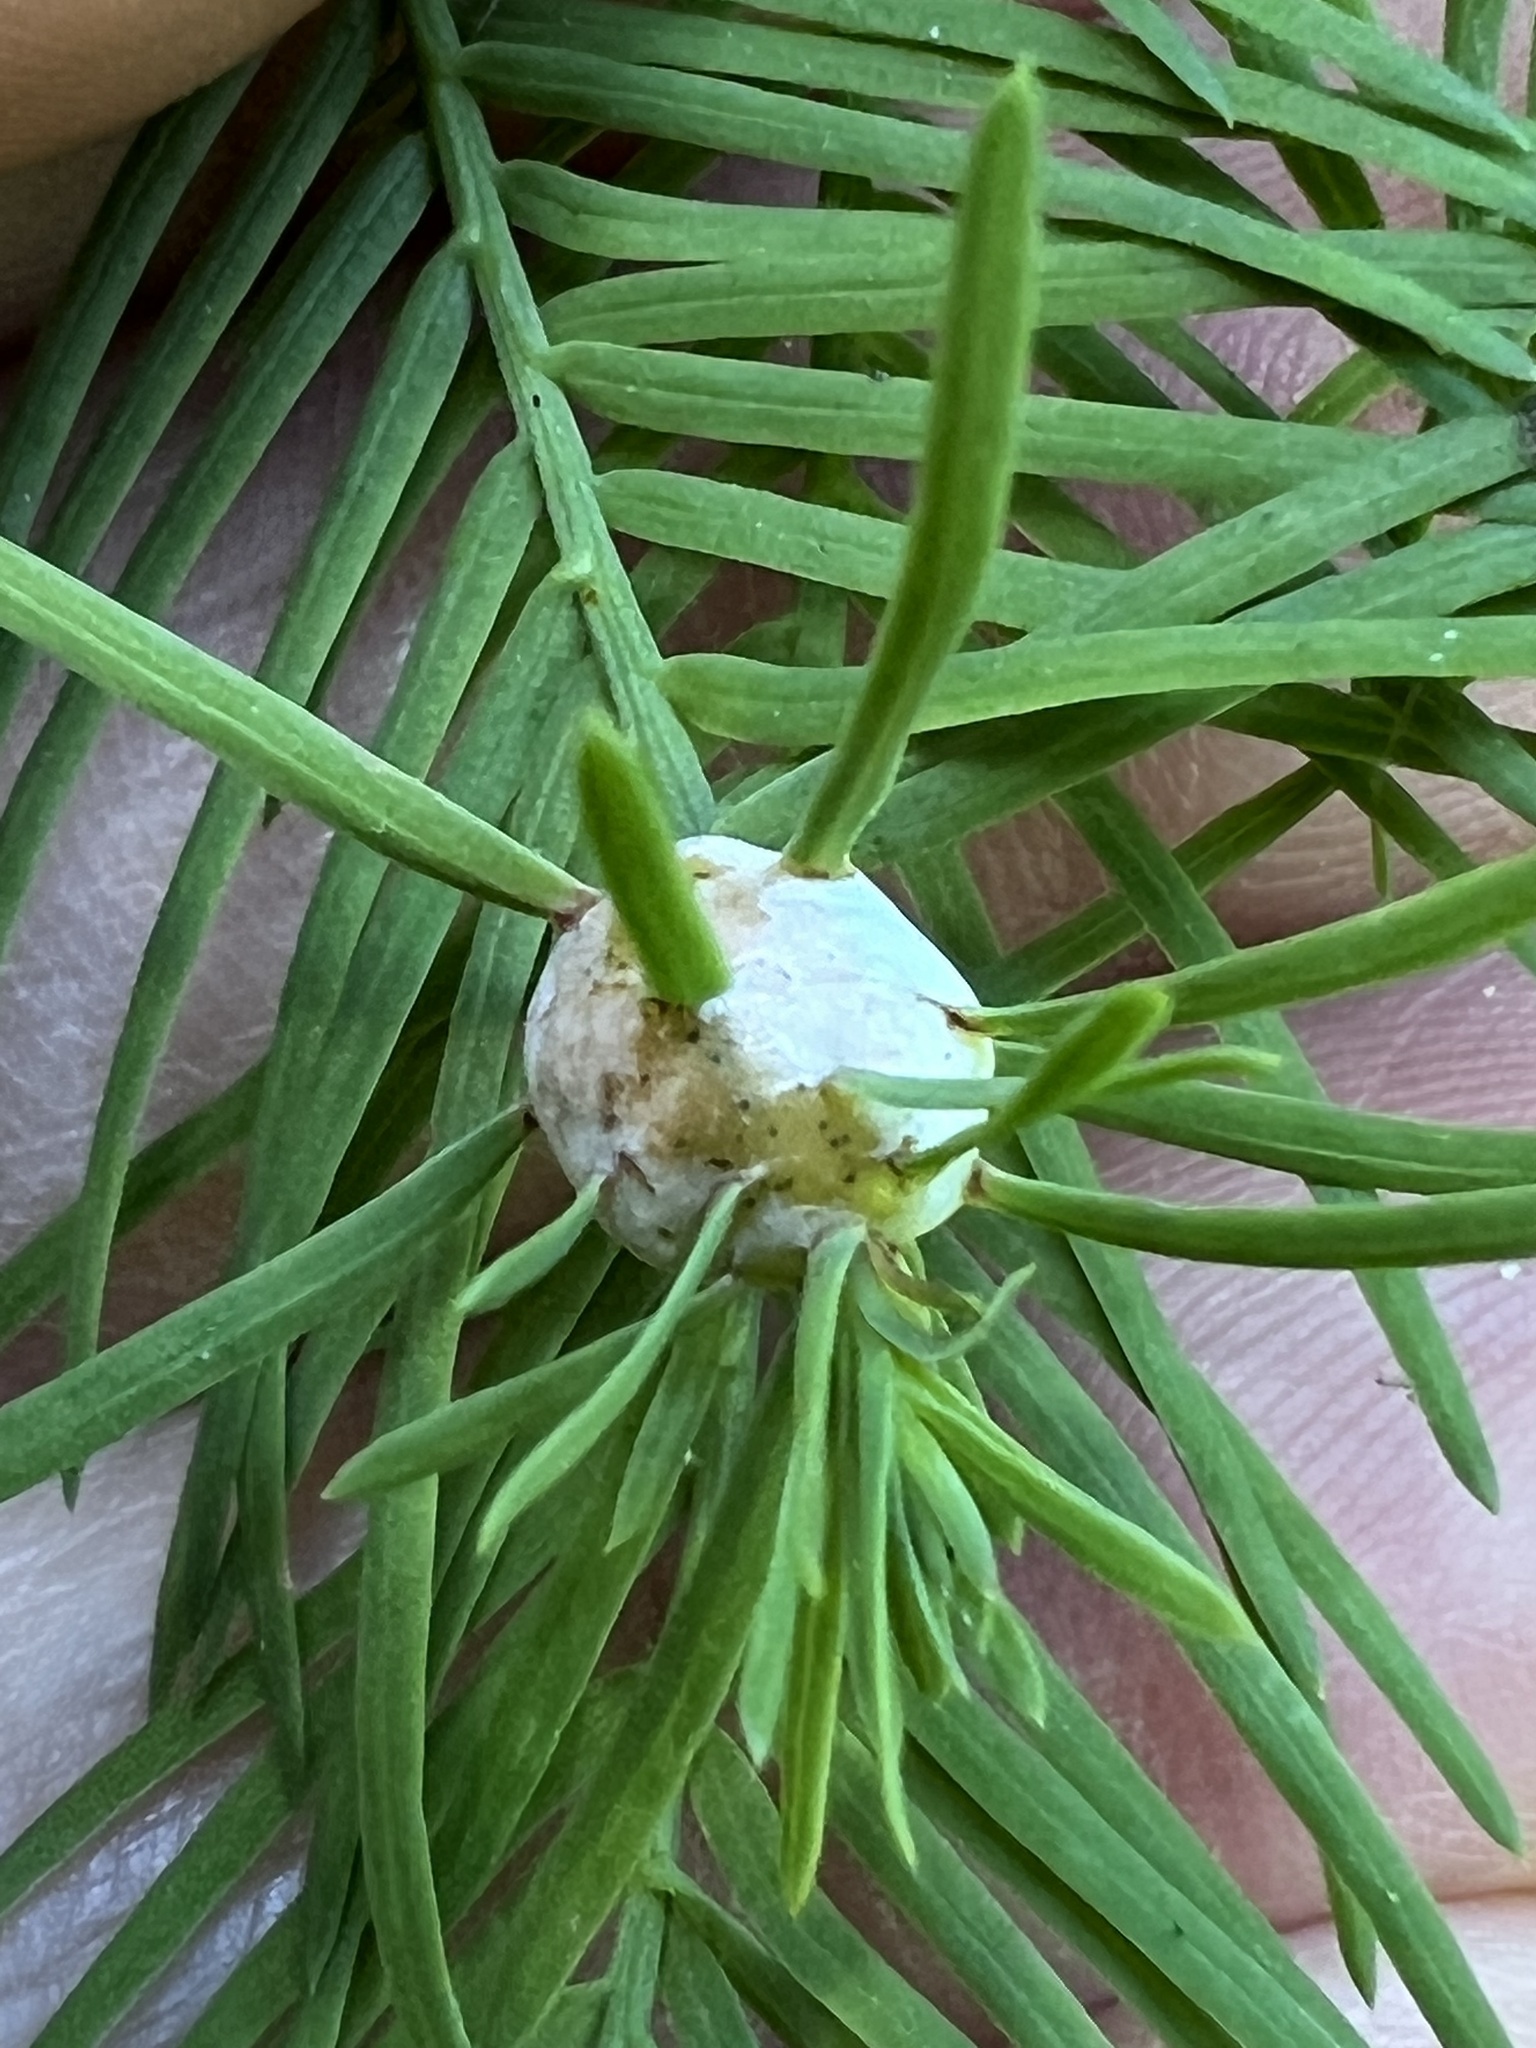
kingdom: Animalia
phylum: Arthropoda
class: Insecta
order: Diptera
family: Cecidomyiidae
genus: Taxodiomyia
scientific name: Taxodiomyia cupressiananassa
